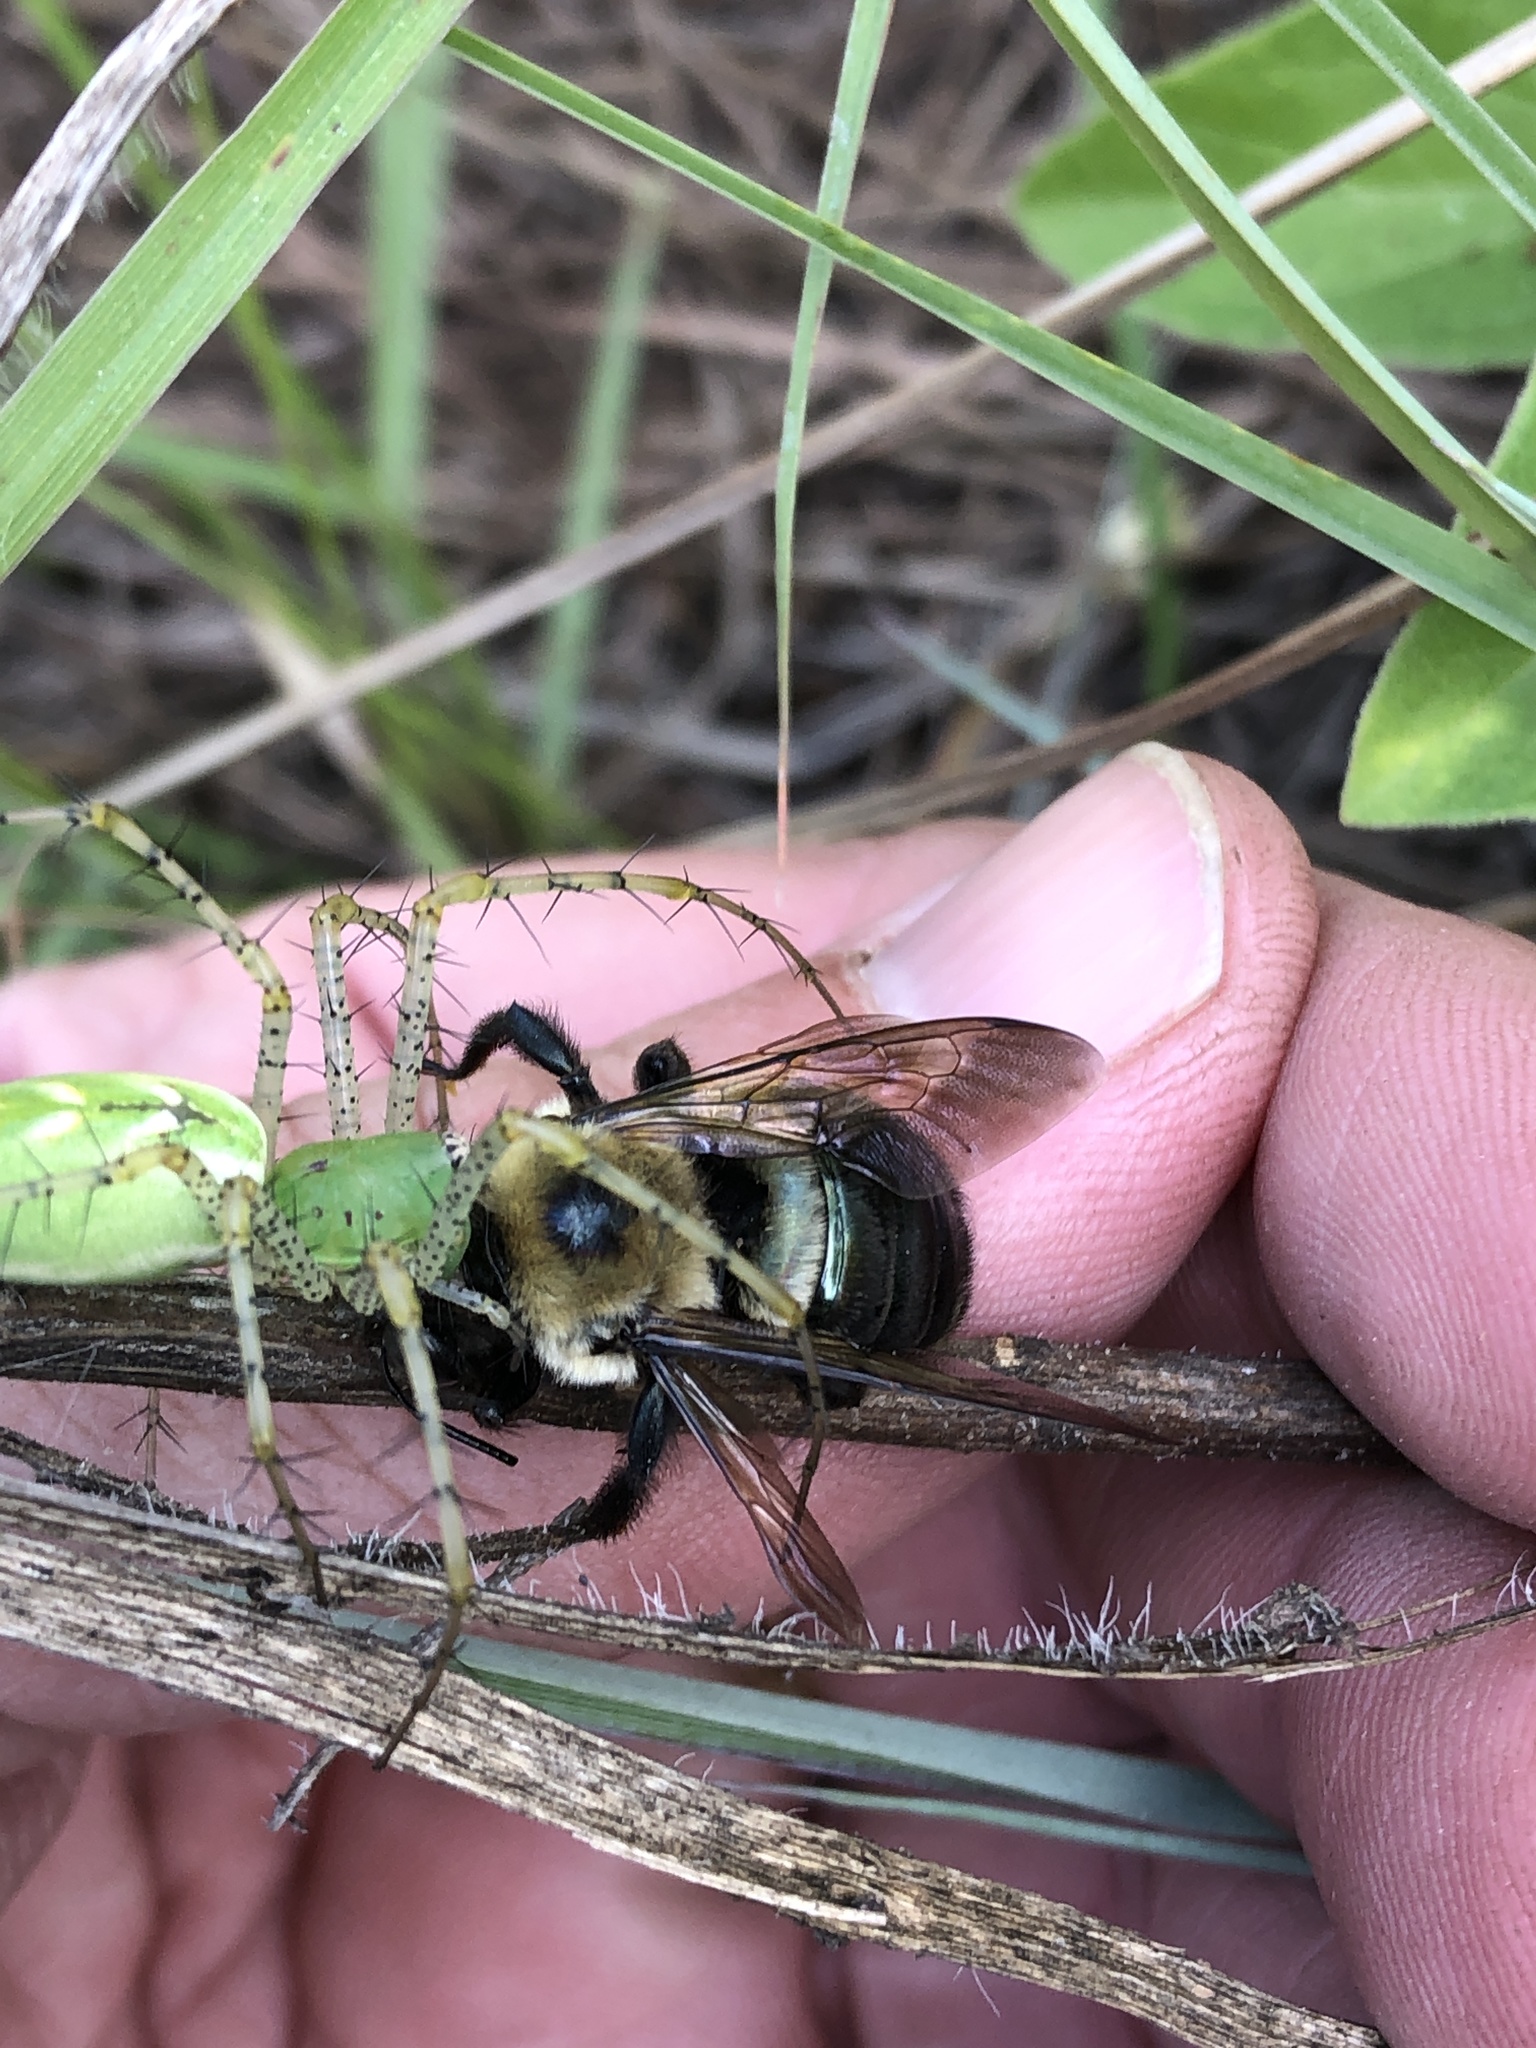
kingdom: Animalia
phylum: Arthropoda
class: Insecta
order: Hymenoptera
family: Apidae
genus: Xylocopa
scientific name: Xylocopa virginica
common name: Carpenter bee
